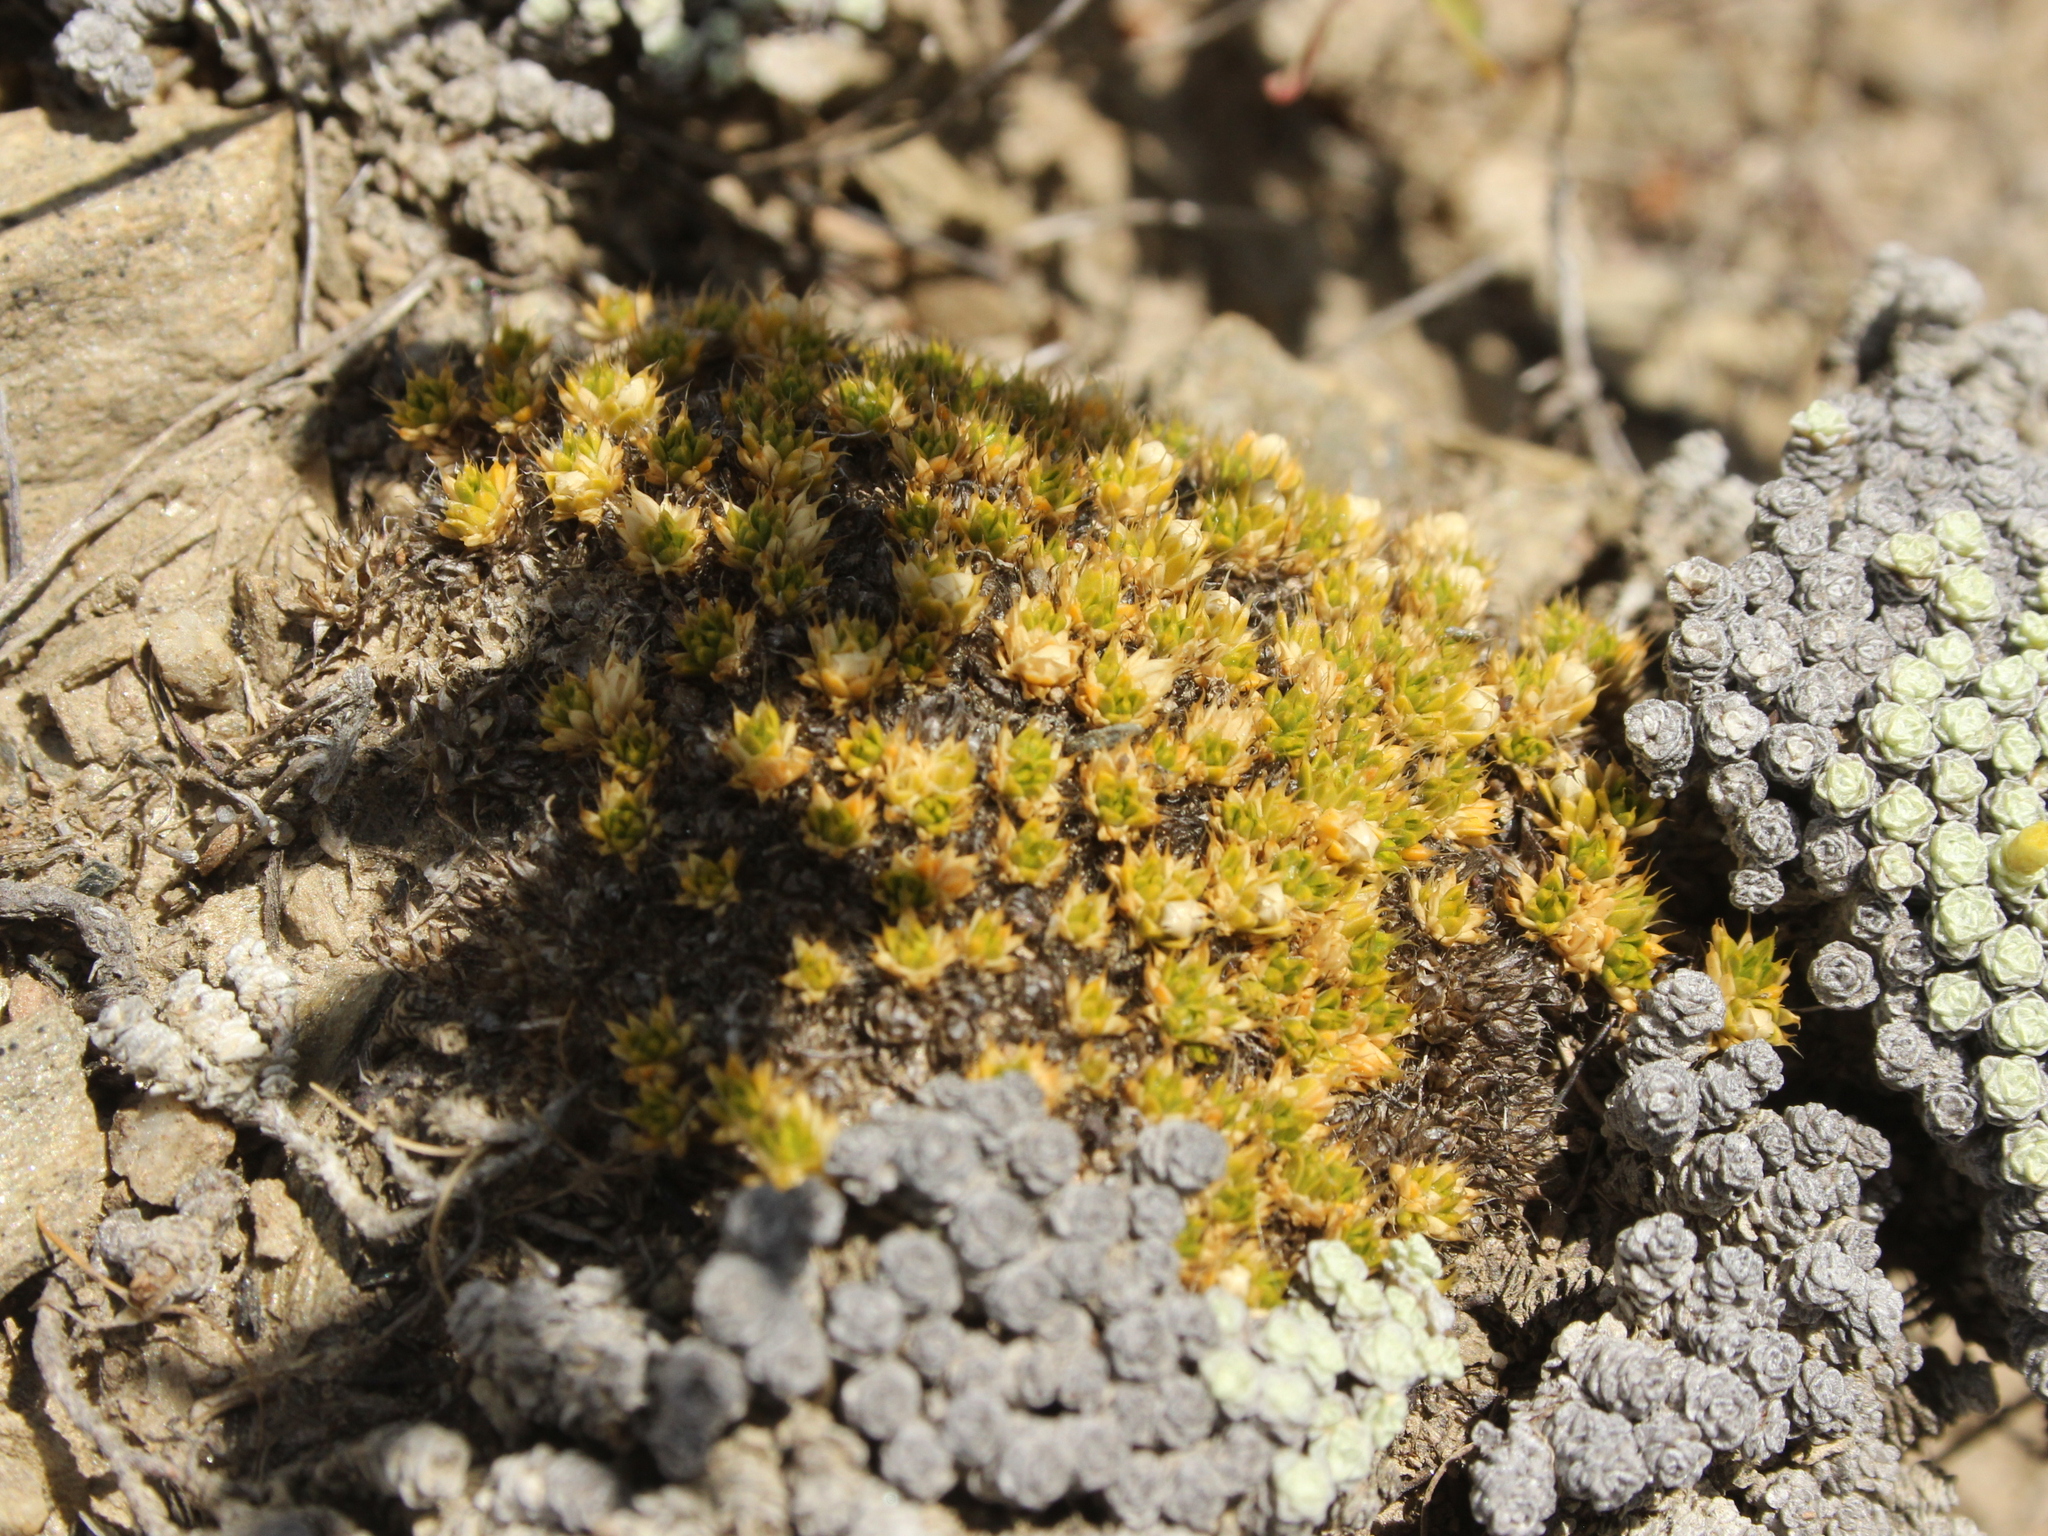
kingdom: Plantae
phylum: Tracheophyta
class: Magnoliopsida
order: Caryophyllales
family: Caryophyllaceae
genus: Colobanthus
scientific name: Colobanthus brevisepalus
